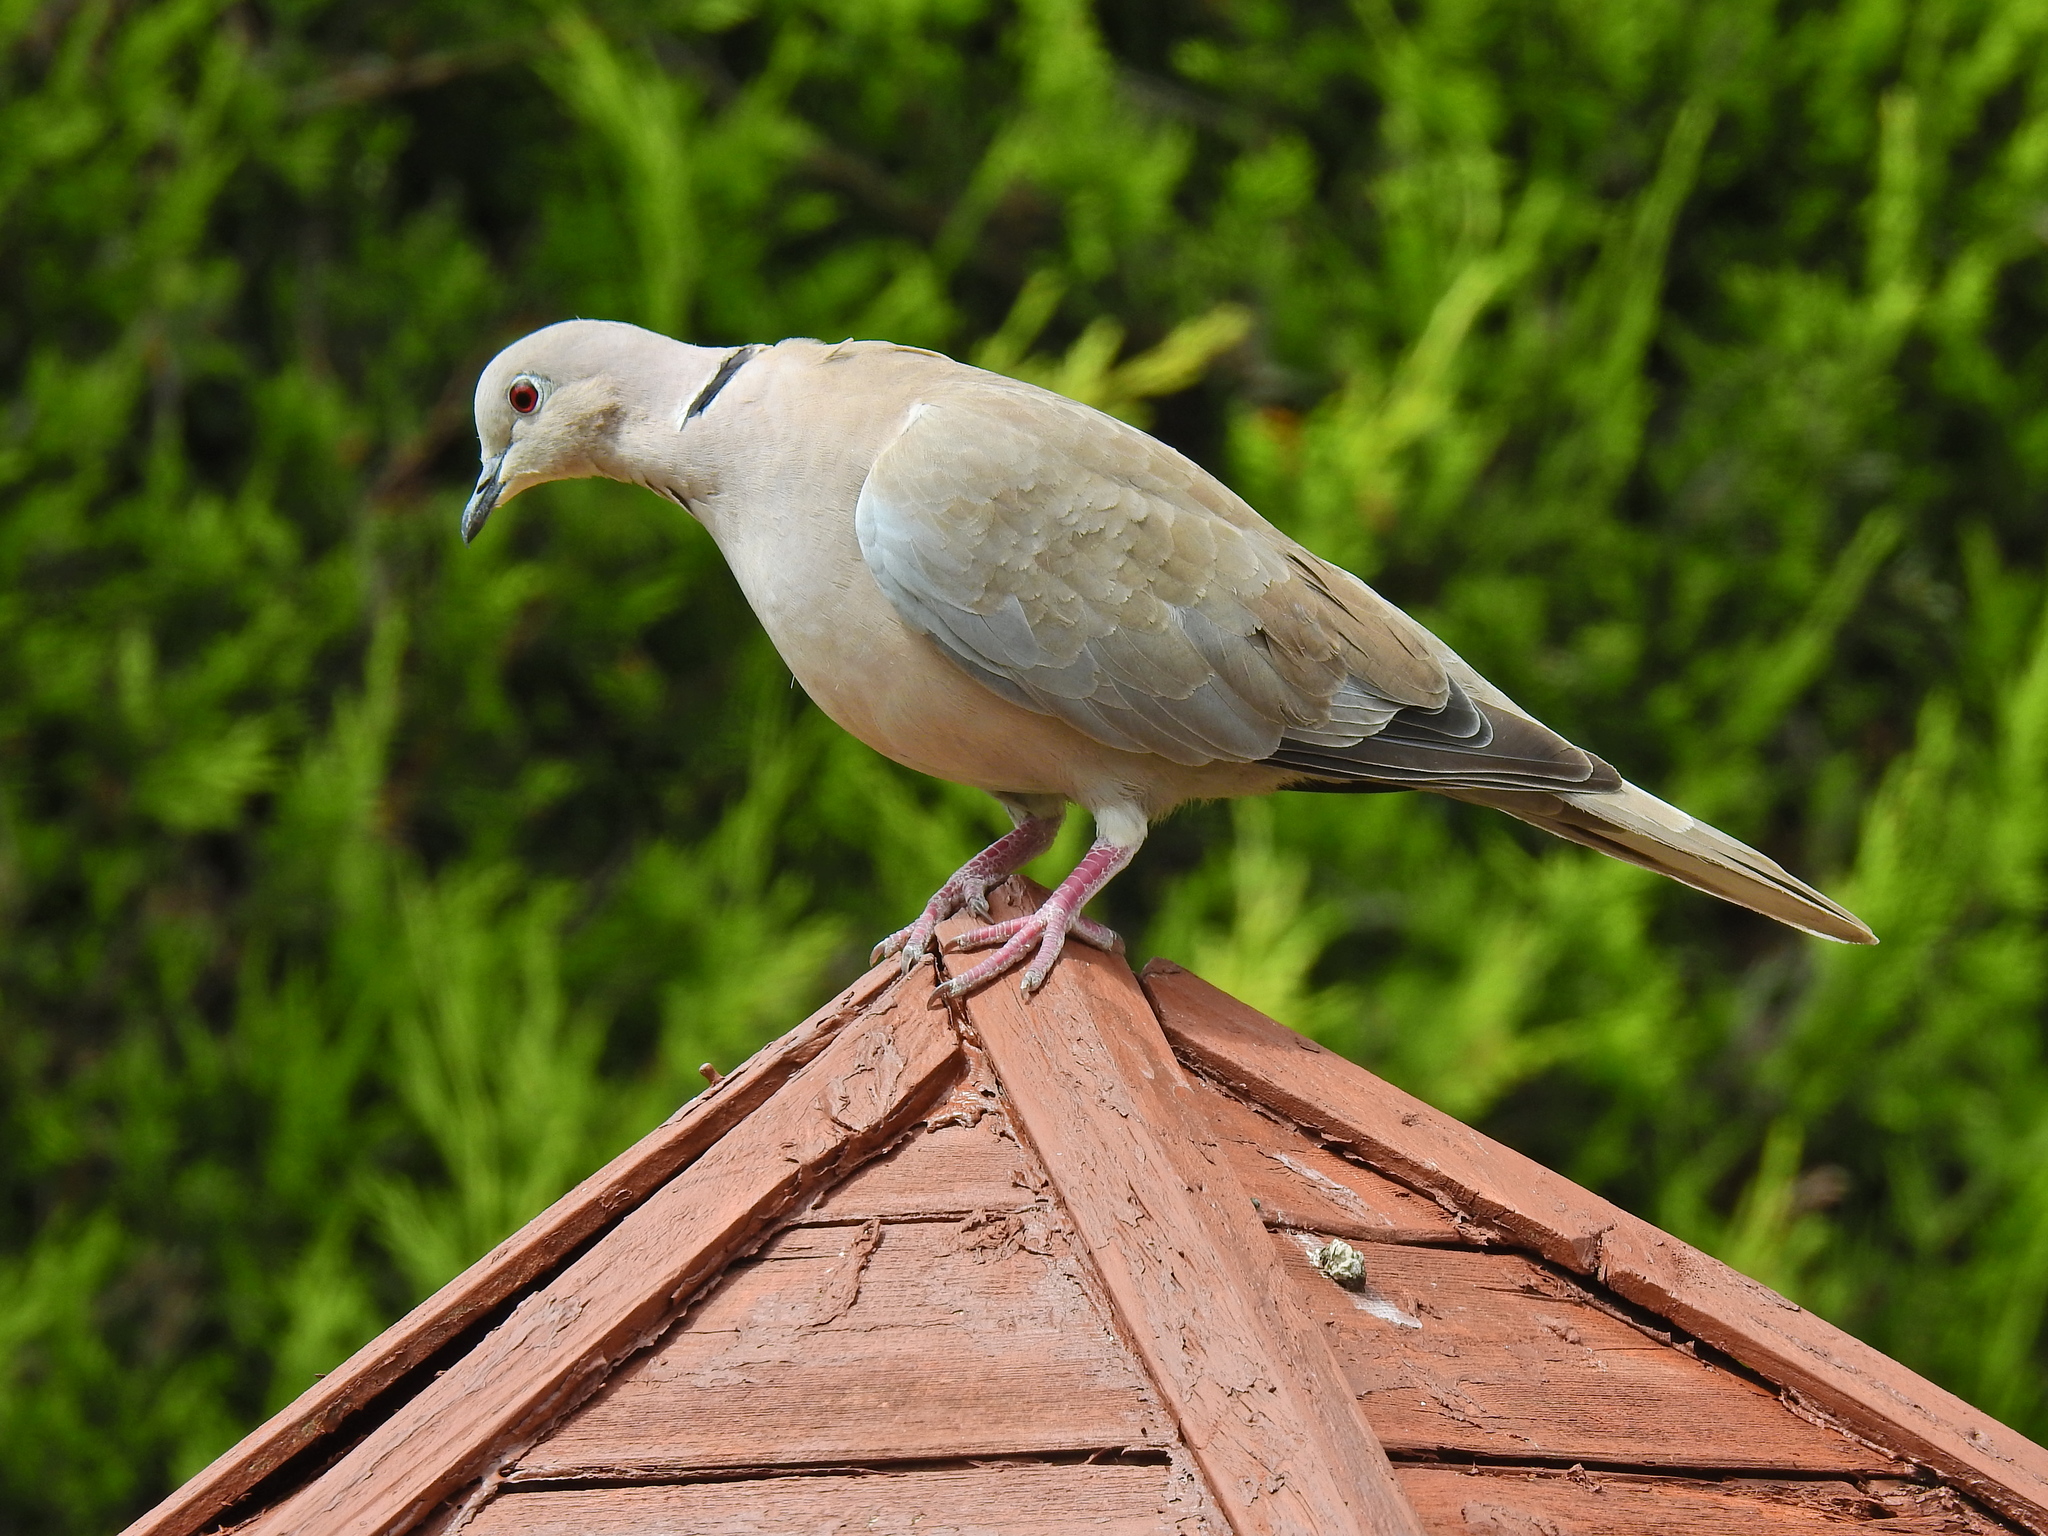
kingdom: Animalia
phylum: Chordata
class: Aves
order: Columbiformes
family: Columbidae
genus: Streptopelia
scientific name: Streptopelia decaocto
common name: Eurasian collared dove
